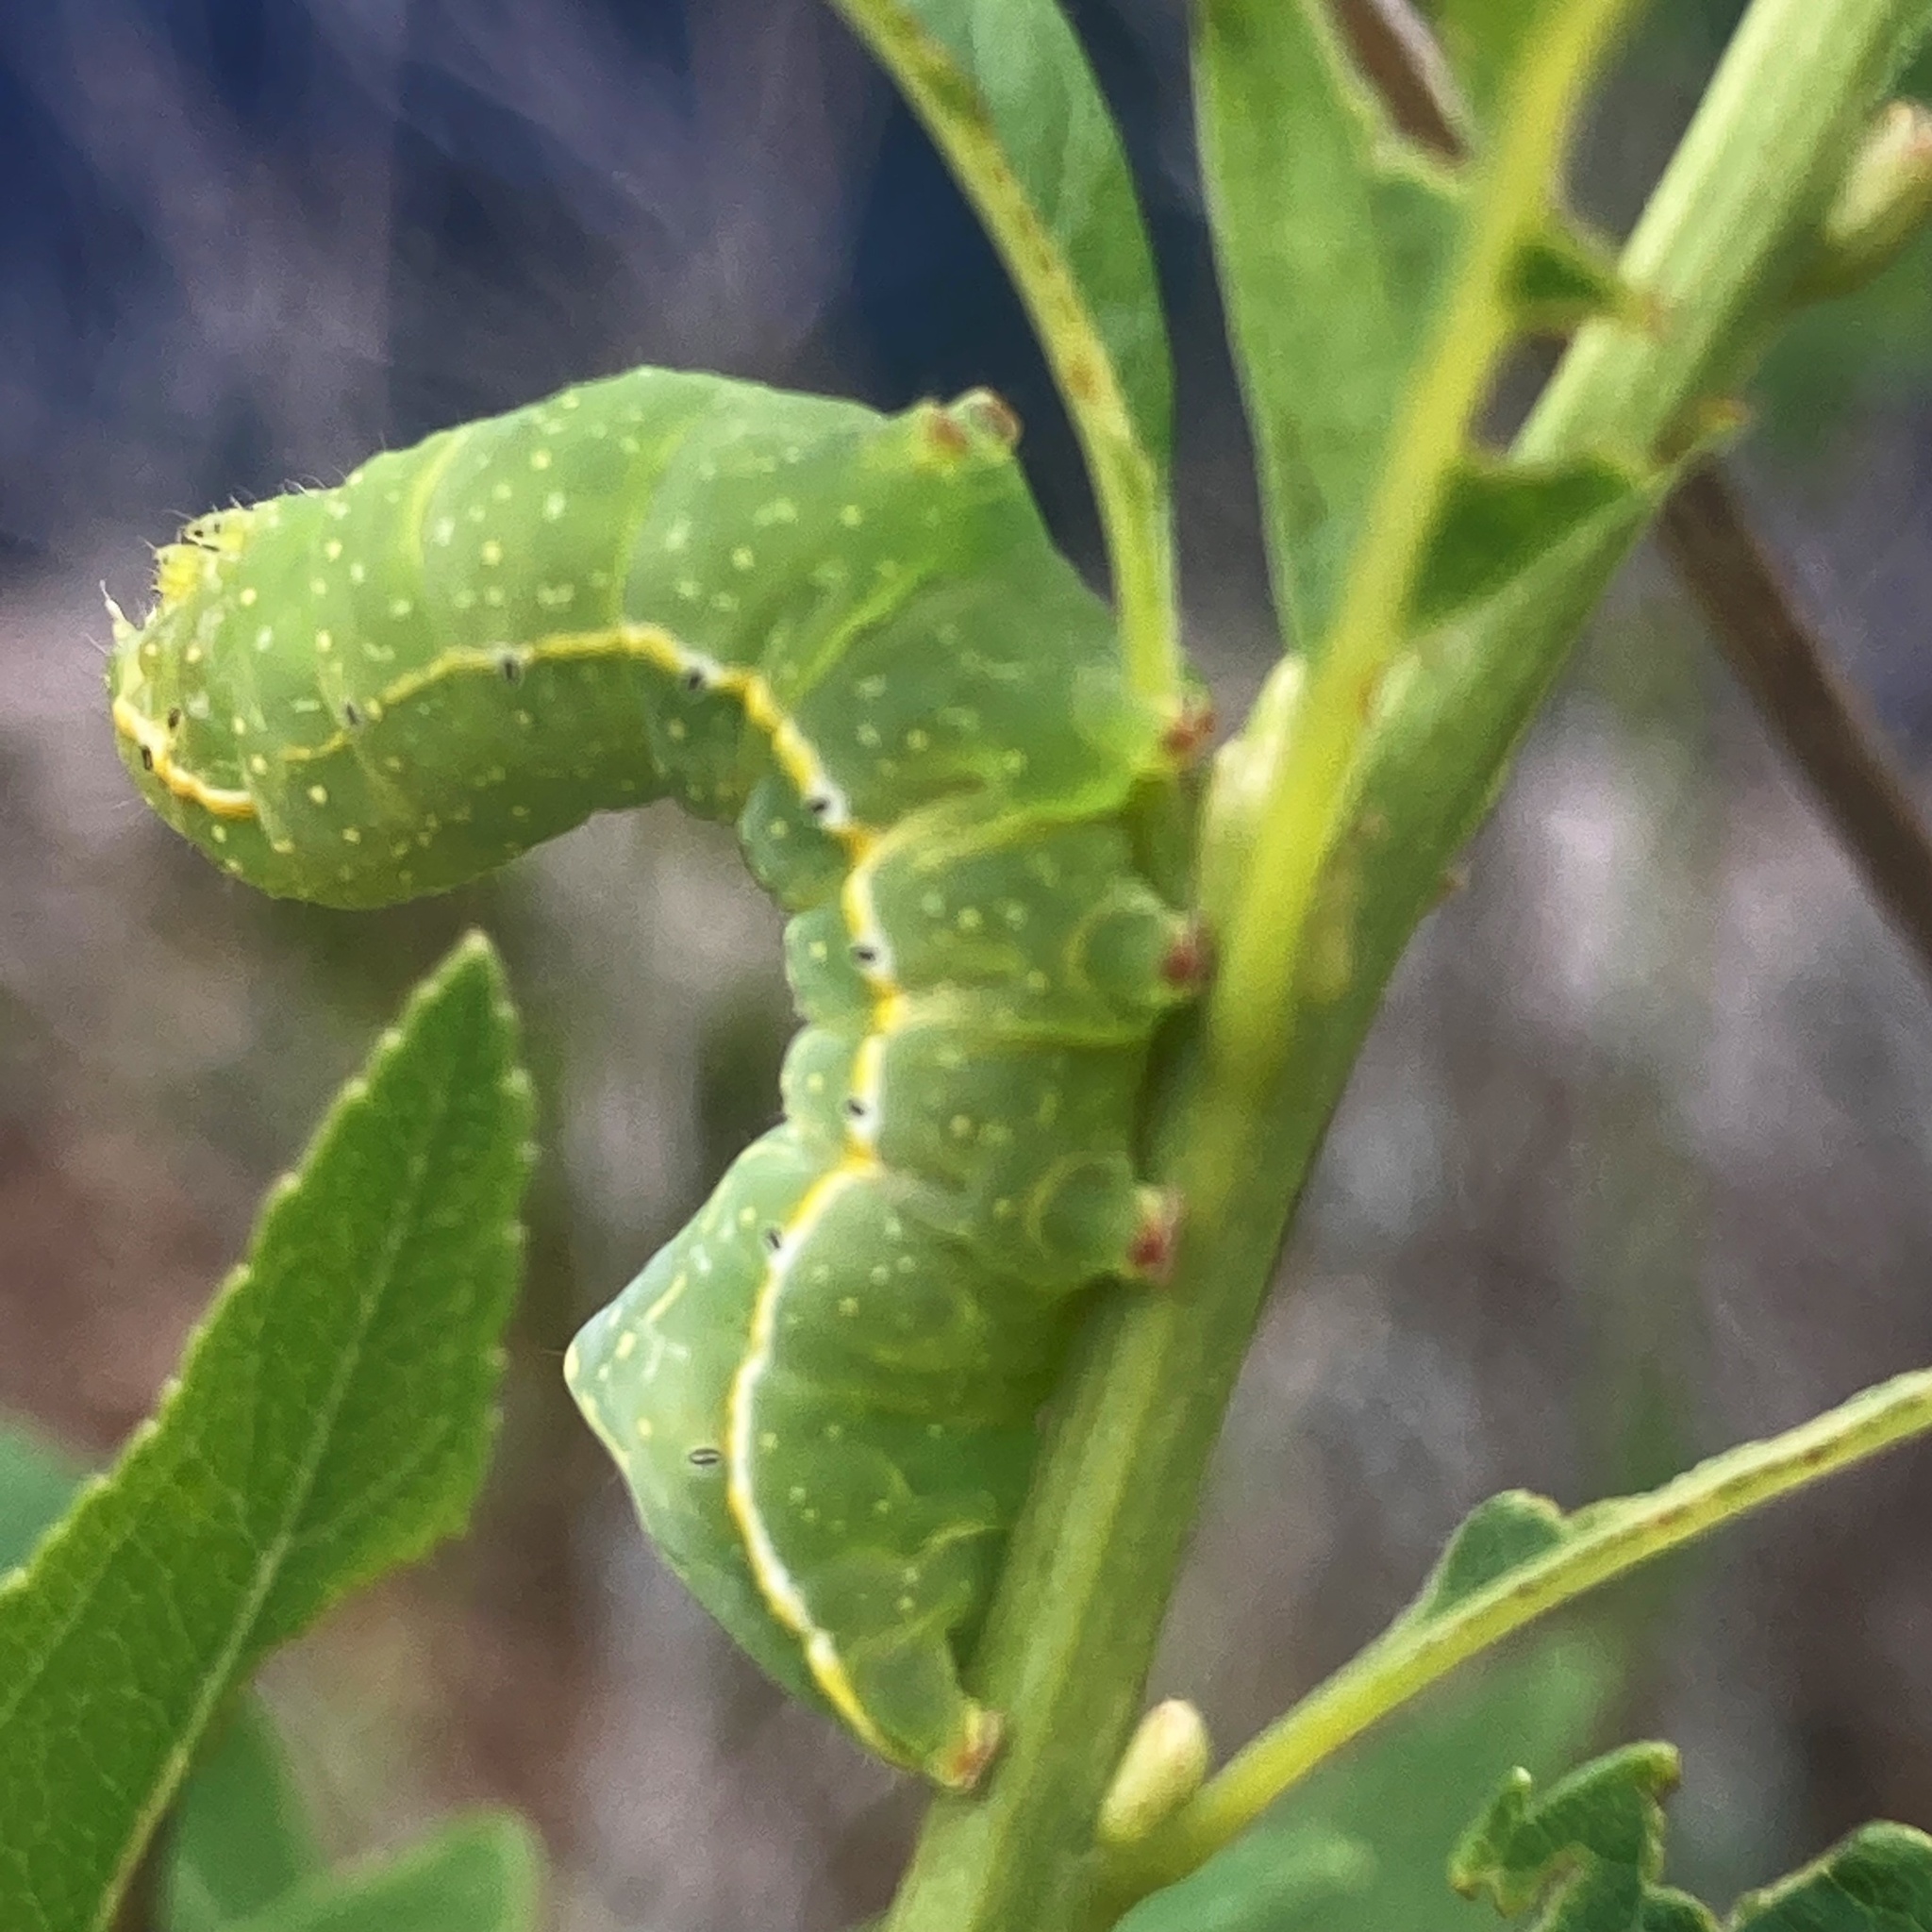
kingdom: Animalia
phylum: Arthropoda
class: Insecta
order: Lepidoptera
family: Noctuidae
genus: Amphipyra
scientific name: Amphipyra pyramidoides
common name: American copper underwing
